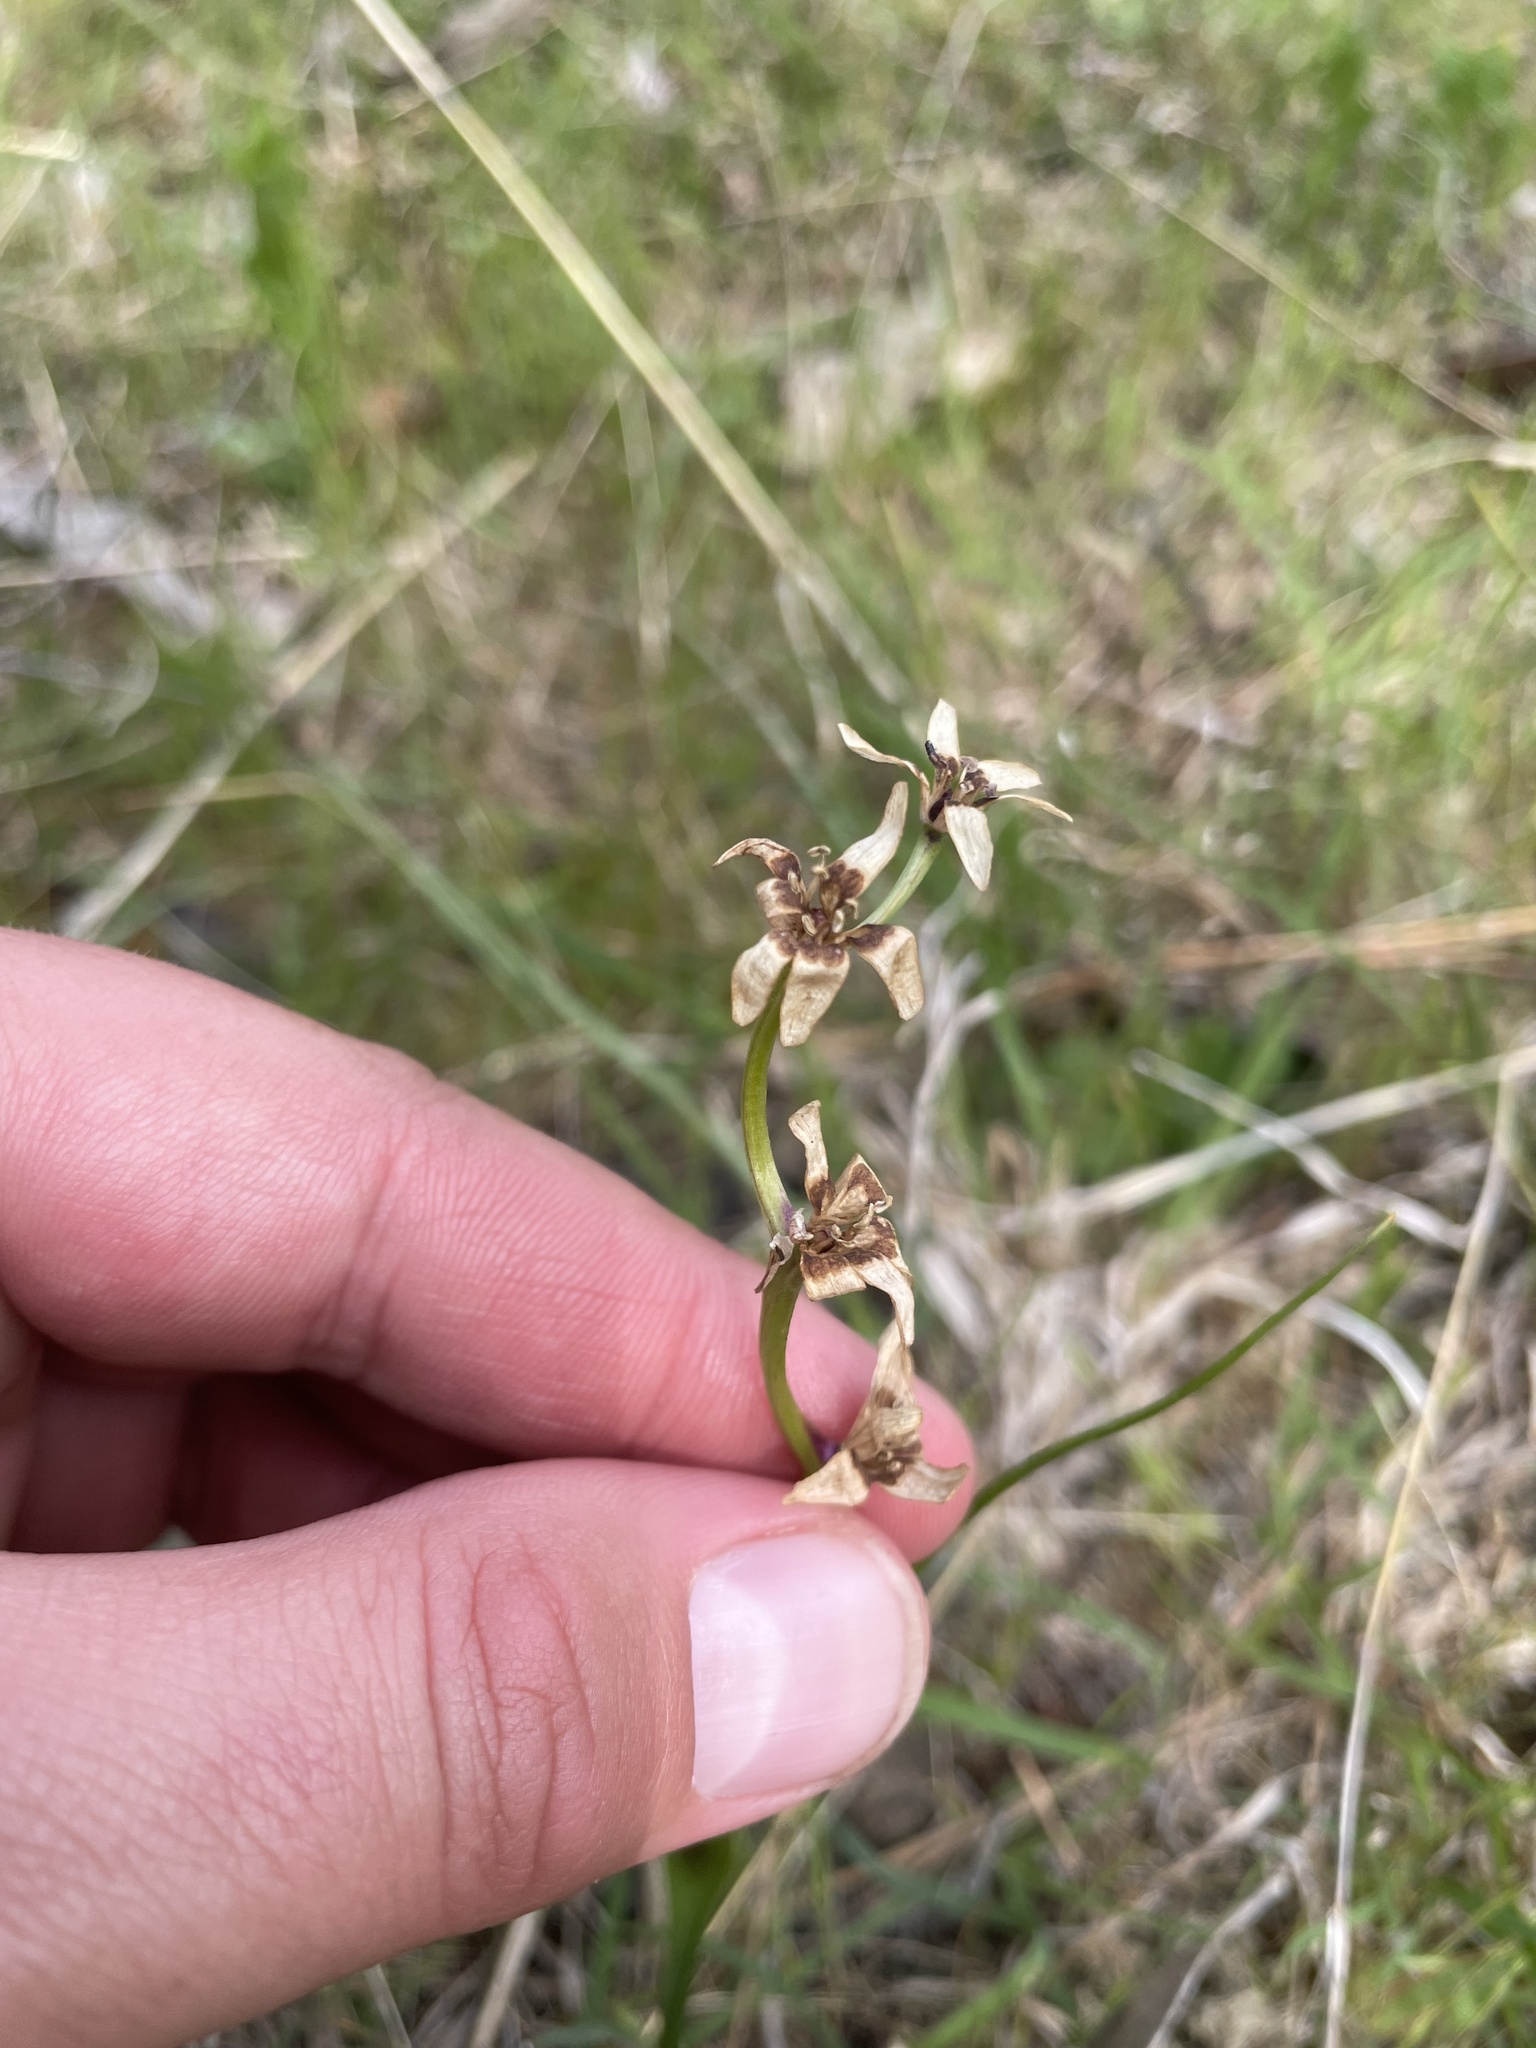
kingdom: Plantae
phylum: Tracheophyta
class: Liliopsida
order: Liliales
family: Colchicaceae
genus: Wurmbea
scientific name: Wurmbea dioica
